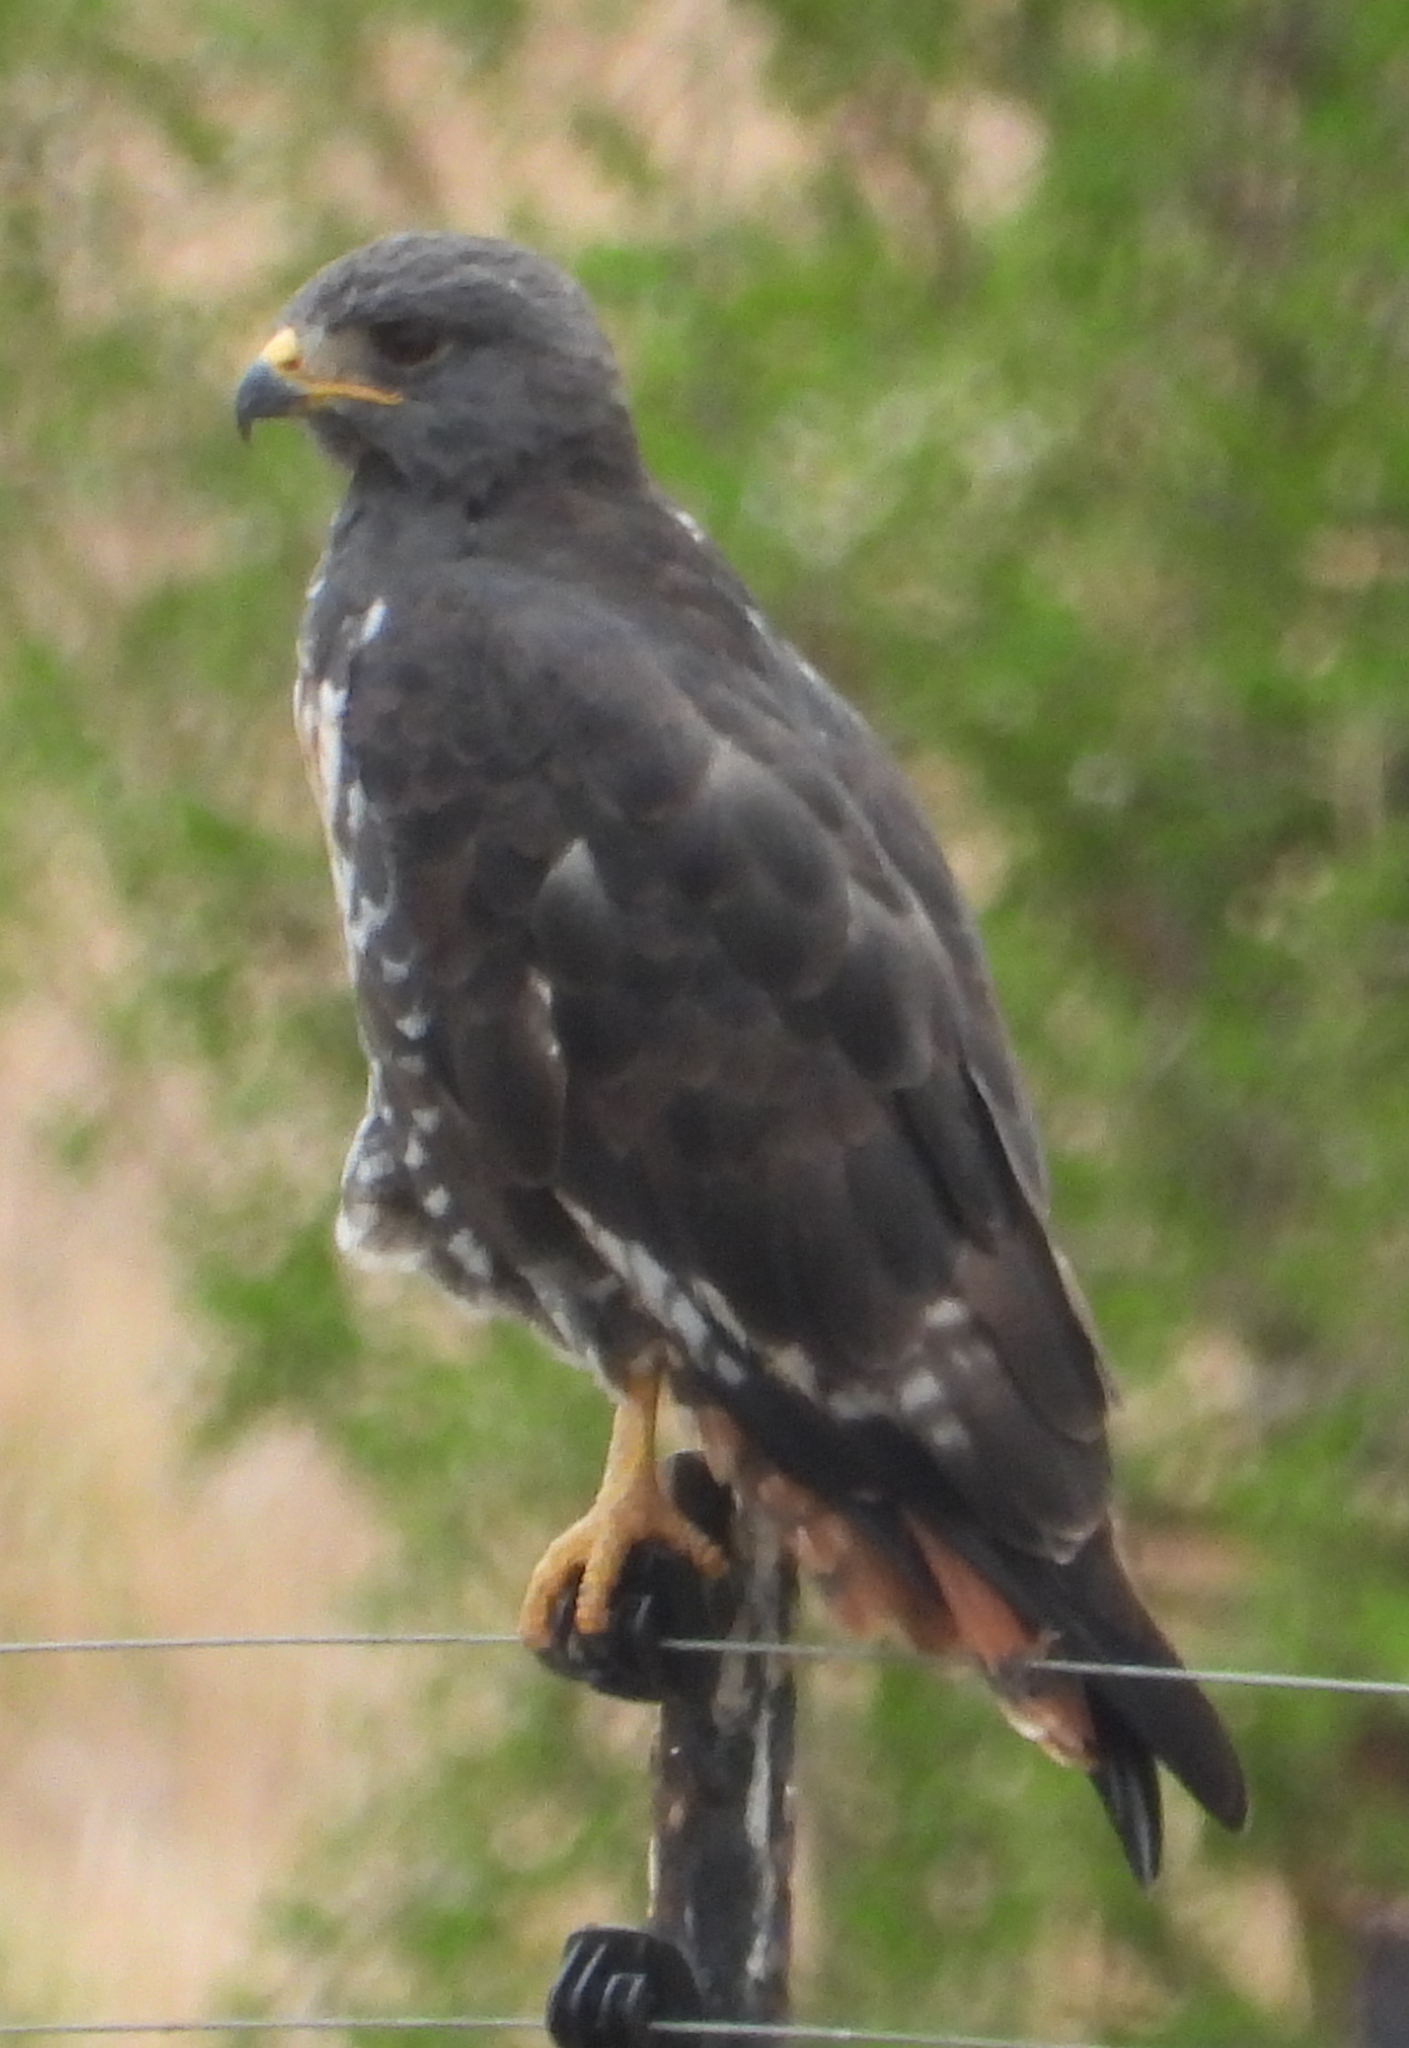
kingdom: Animalia
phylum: Chordata
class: Aves
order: Accipitriformes
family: Accipitridae
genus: Buteo
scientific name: Buteo rufofuscus
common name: Jackal buzzard
